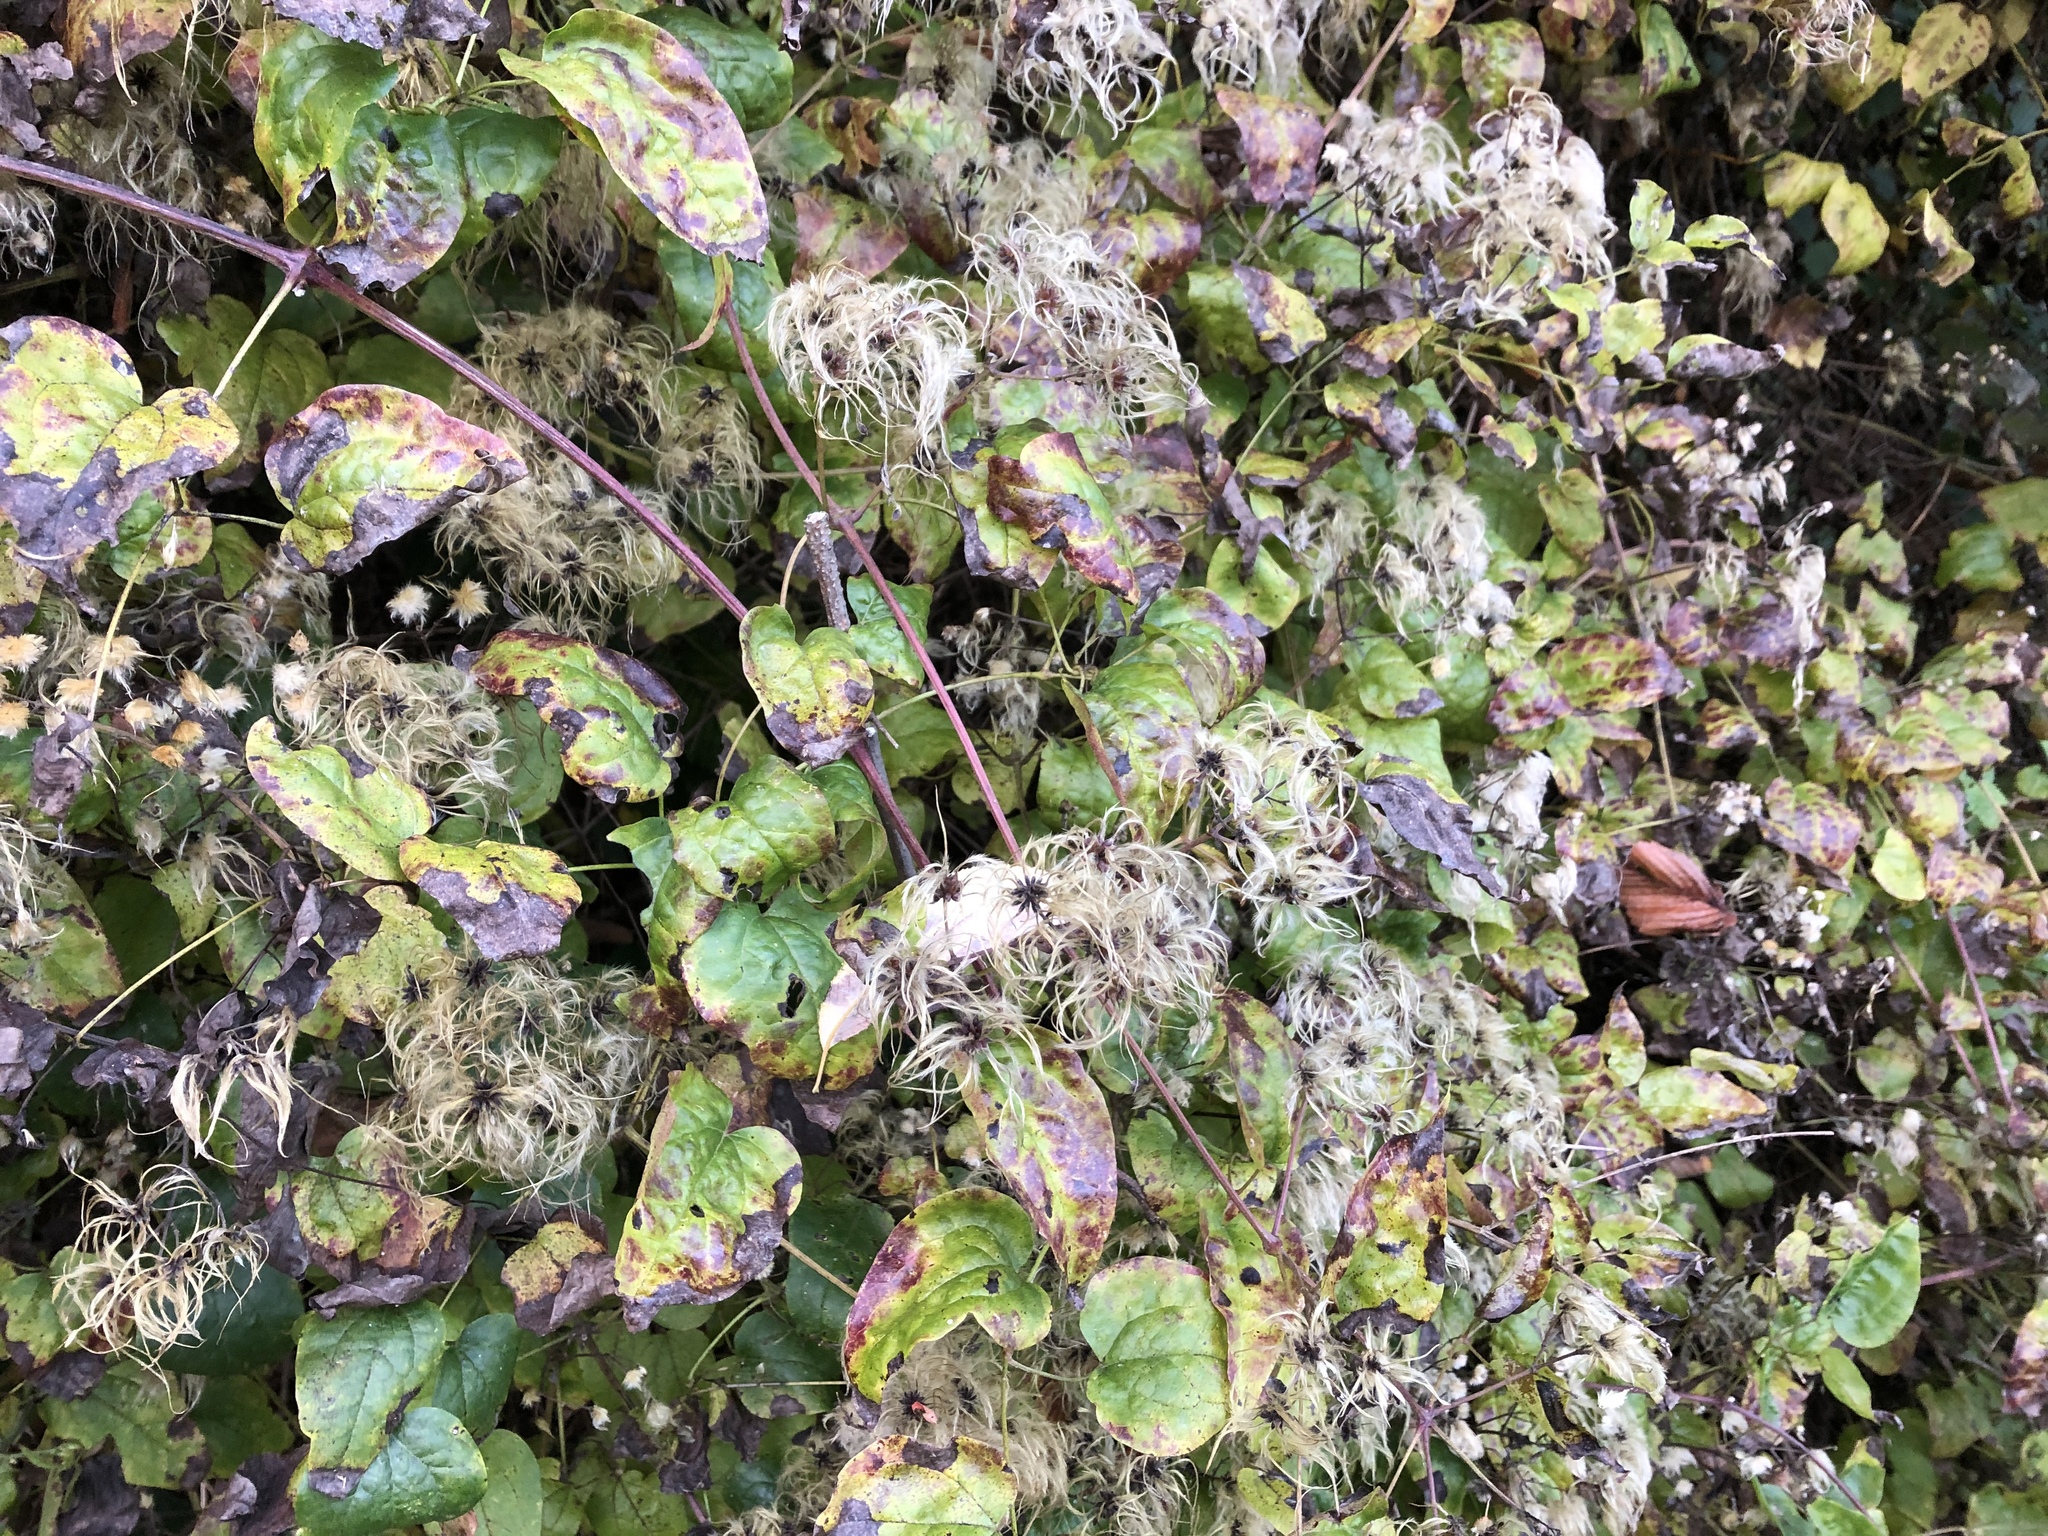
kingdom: Plantae
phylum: Tracheophyta
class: Magnoliopsida
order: Ranunculales
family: Ranunculaceae
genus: Clematis
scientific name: Clematis vitalba
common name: Evergreen clematis
